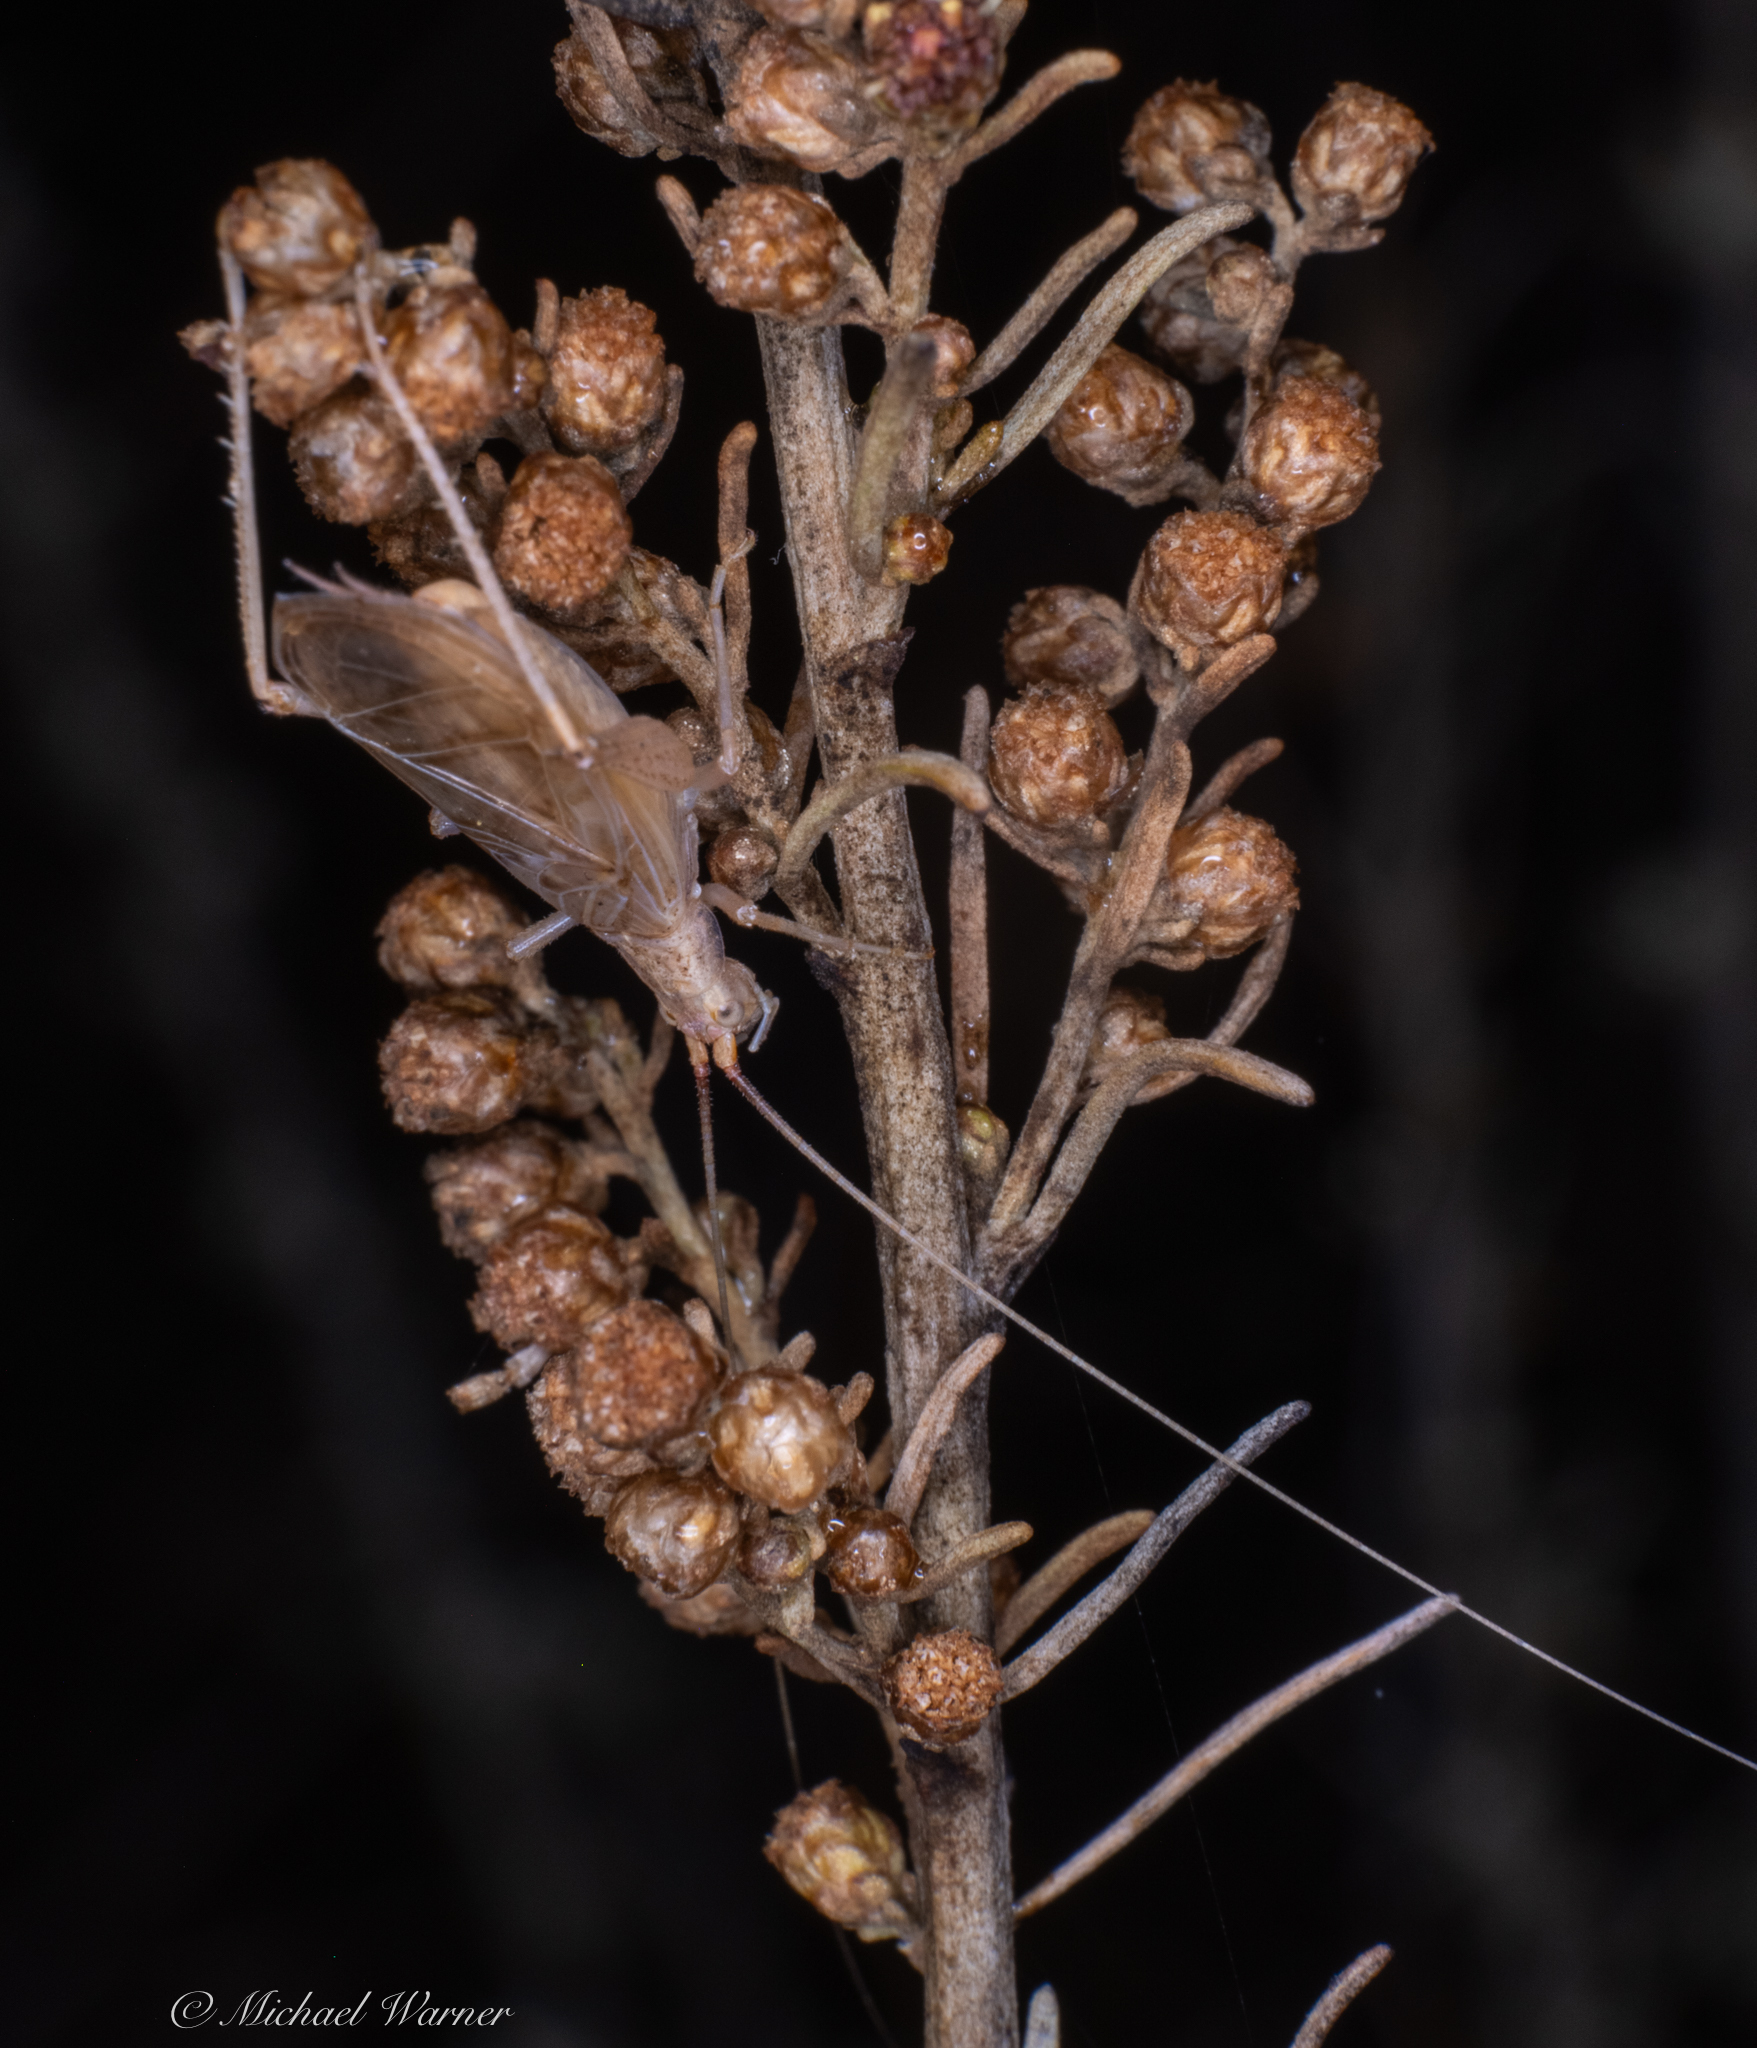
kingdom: Animalia
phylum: Arthropoda
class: Insecta
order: Orthoptera
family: Gryllidae
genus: Oecanthus
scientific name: Oecanthus californicus
